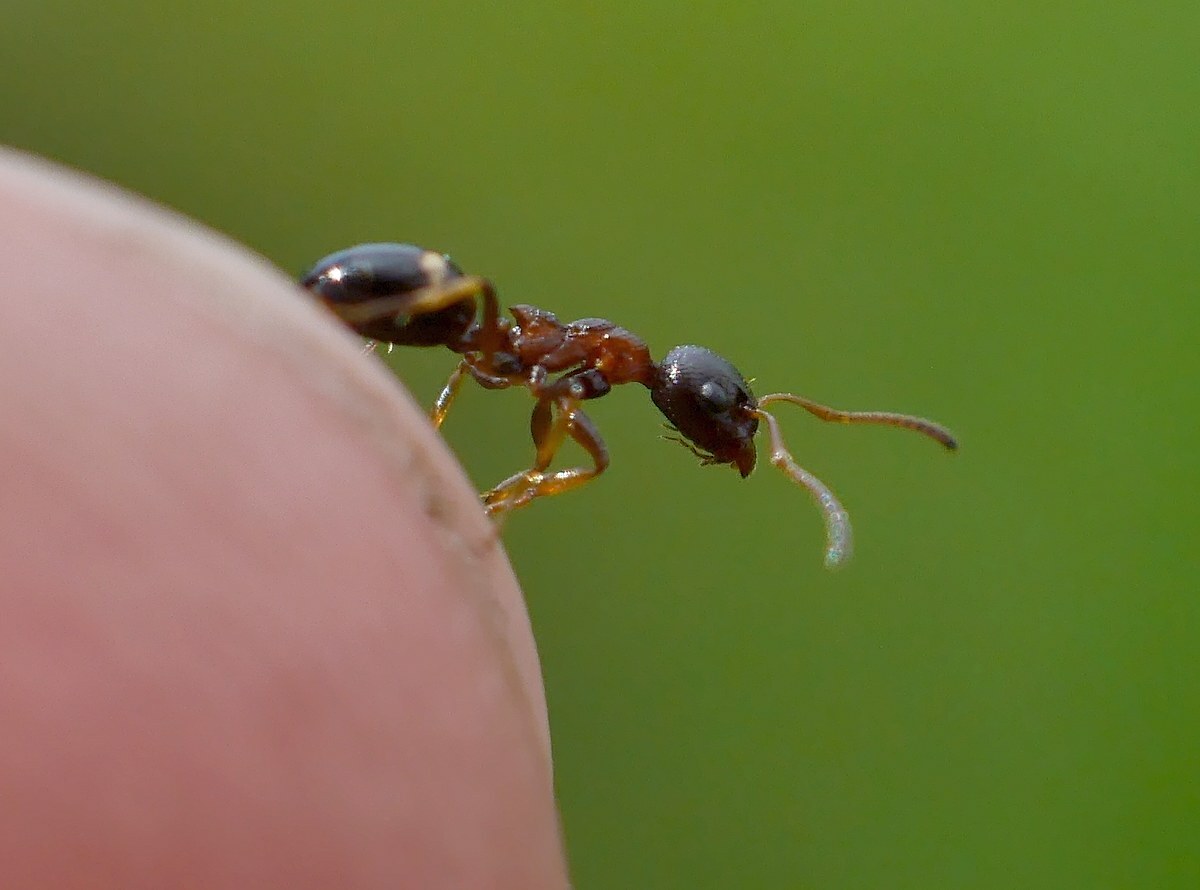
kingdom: Animalia
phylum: Arthropoda
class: Insecta
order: Hymenoptera
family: Formicidae
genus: Dolichoderus
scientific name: Dolichoderus quadripunctatus
